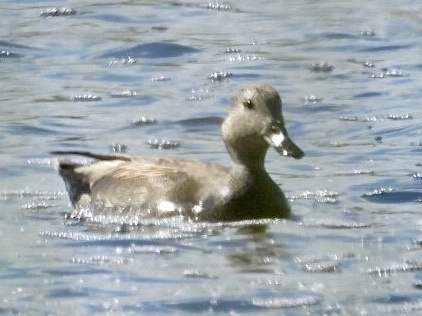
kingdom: Animalia
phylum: Chordata
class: Aves
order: Anseriformes
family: Anatidae
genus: Mareca
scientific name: Mareca strepera
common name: Gadwall
